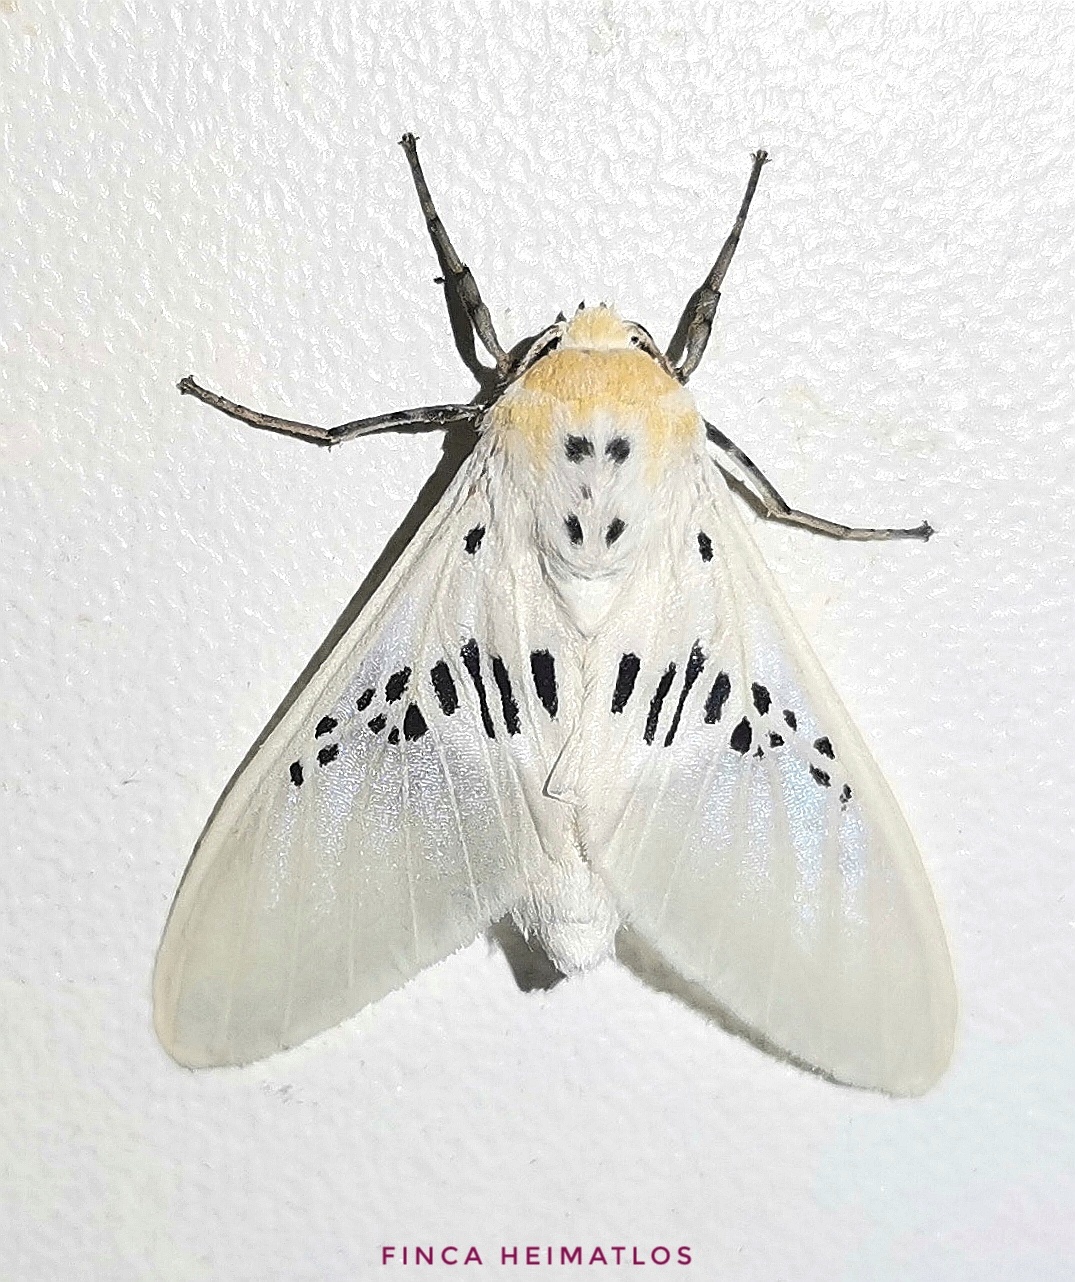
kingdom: Animalia
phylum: Arthropoda
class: Insecta
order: Lepidoptera
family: Erebidae
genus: Idalus
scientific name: Idalus fasciipuncta
